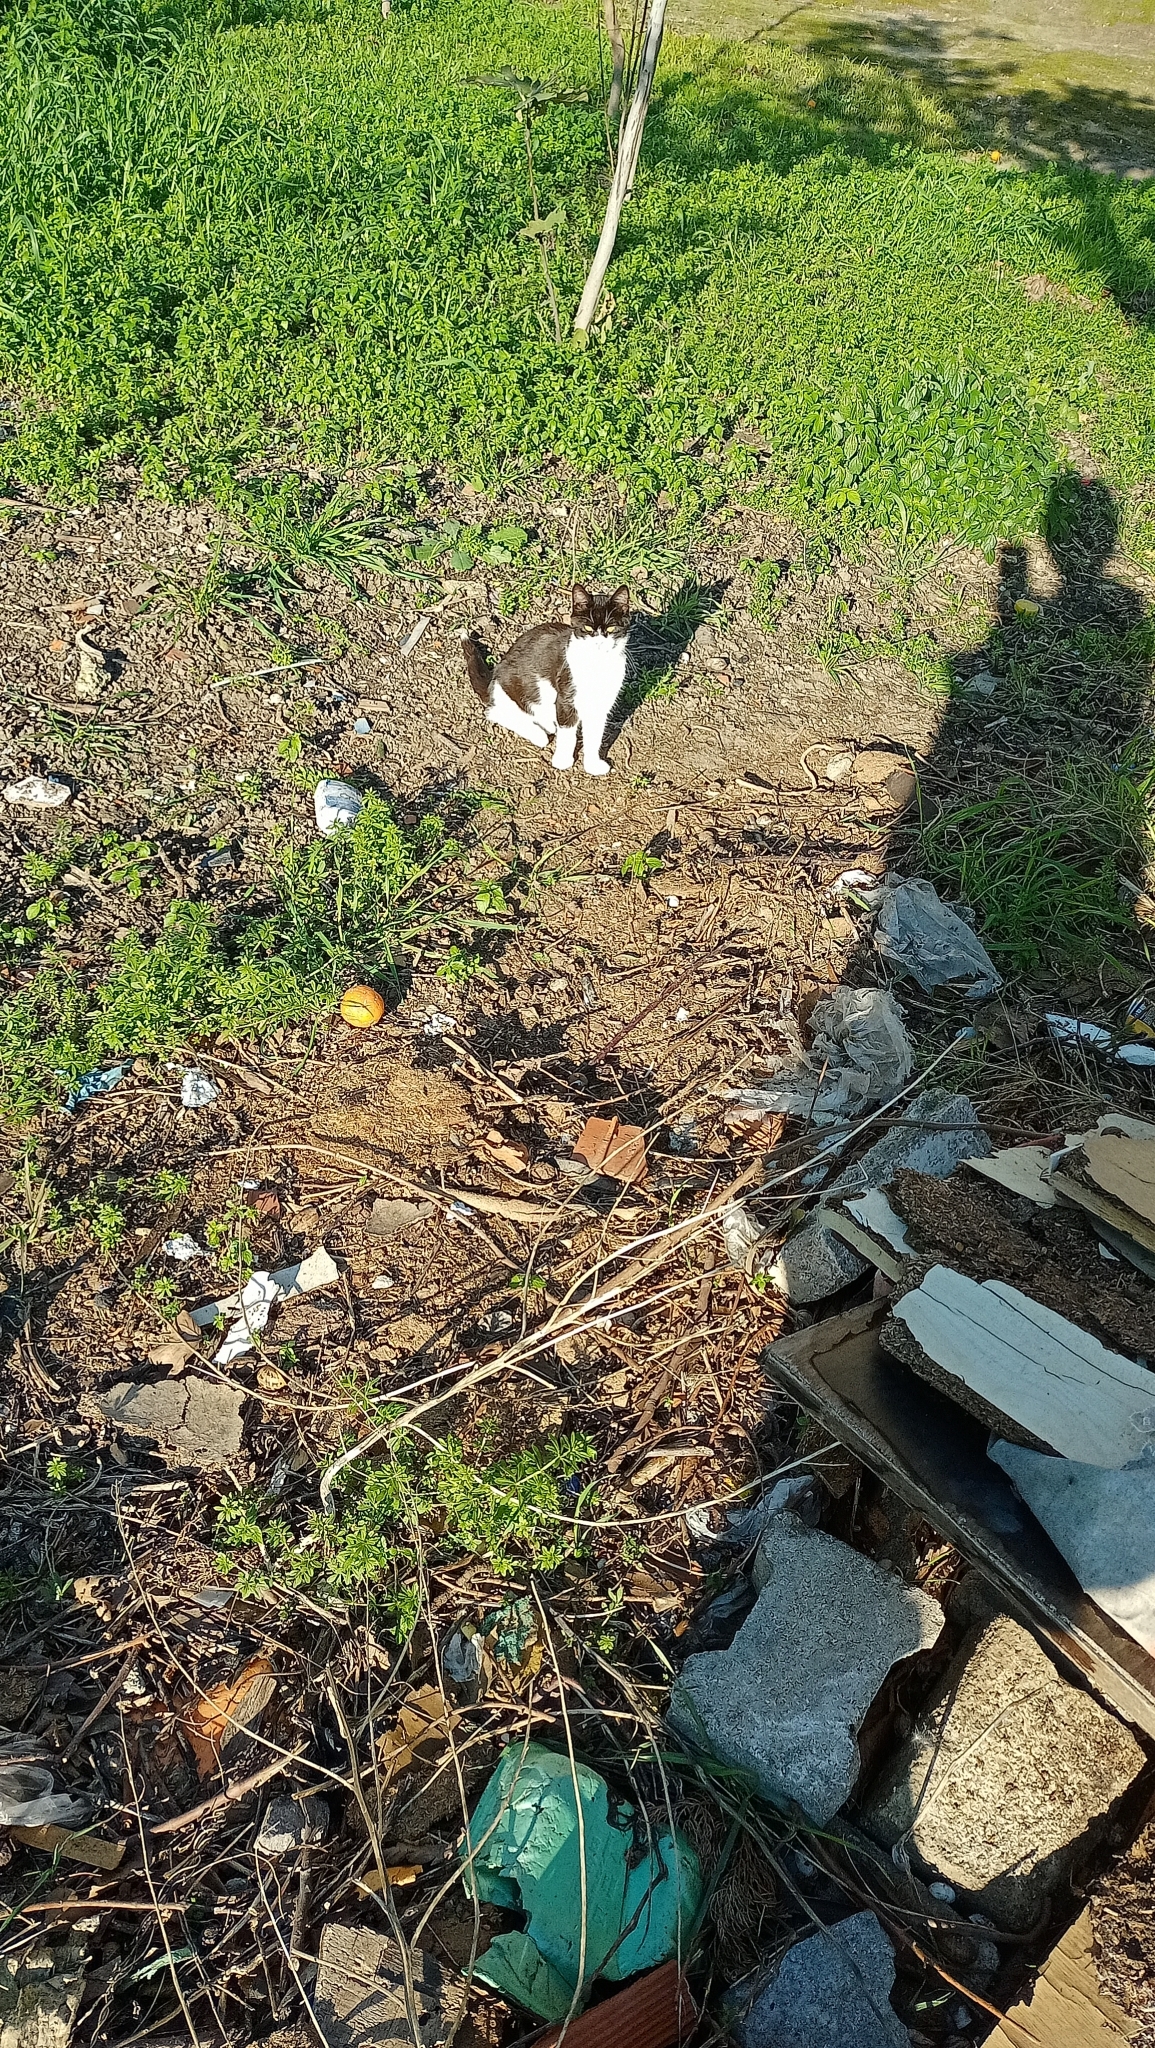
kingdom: Animalia
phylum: Chordata
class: Mammalia
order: Carnivora
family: Felidae
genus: Felis
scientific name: Felis catus
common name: Domestic cat
